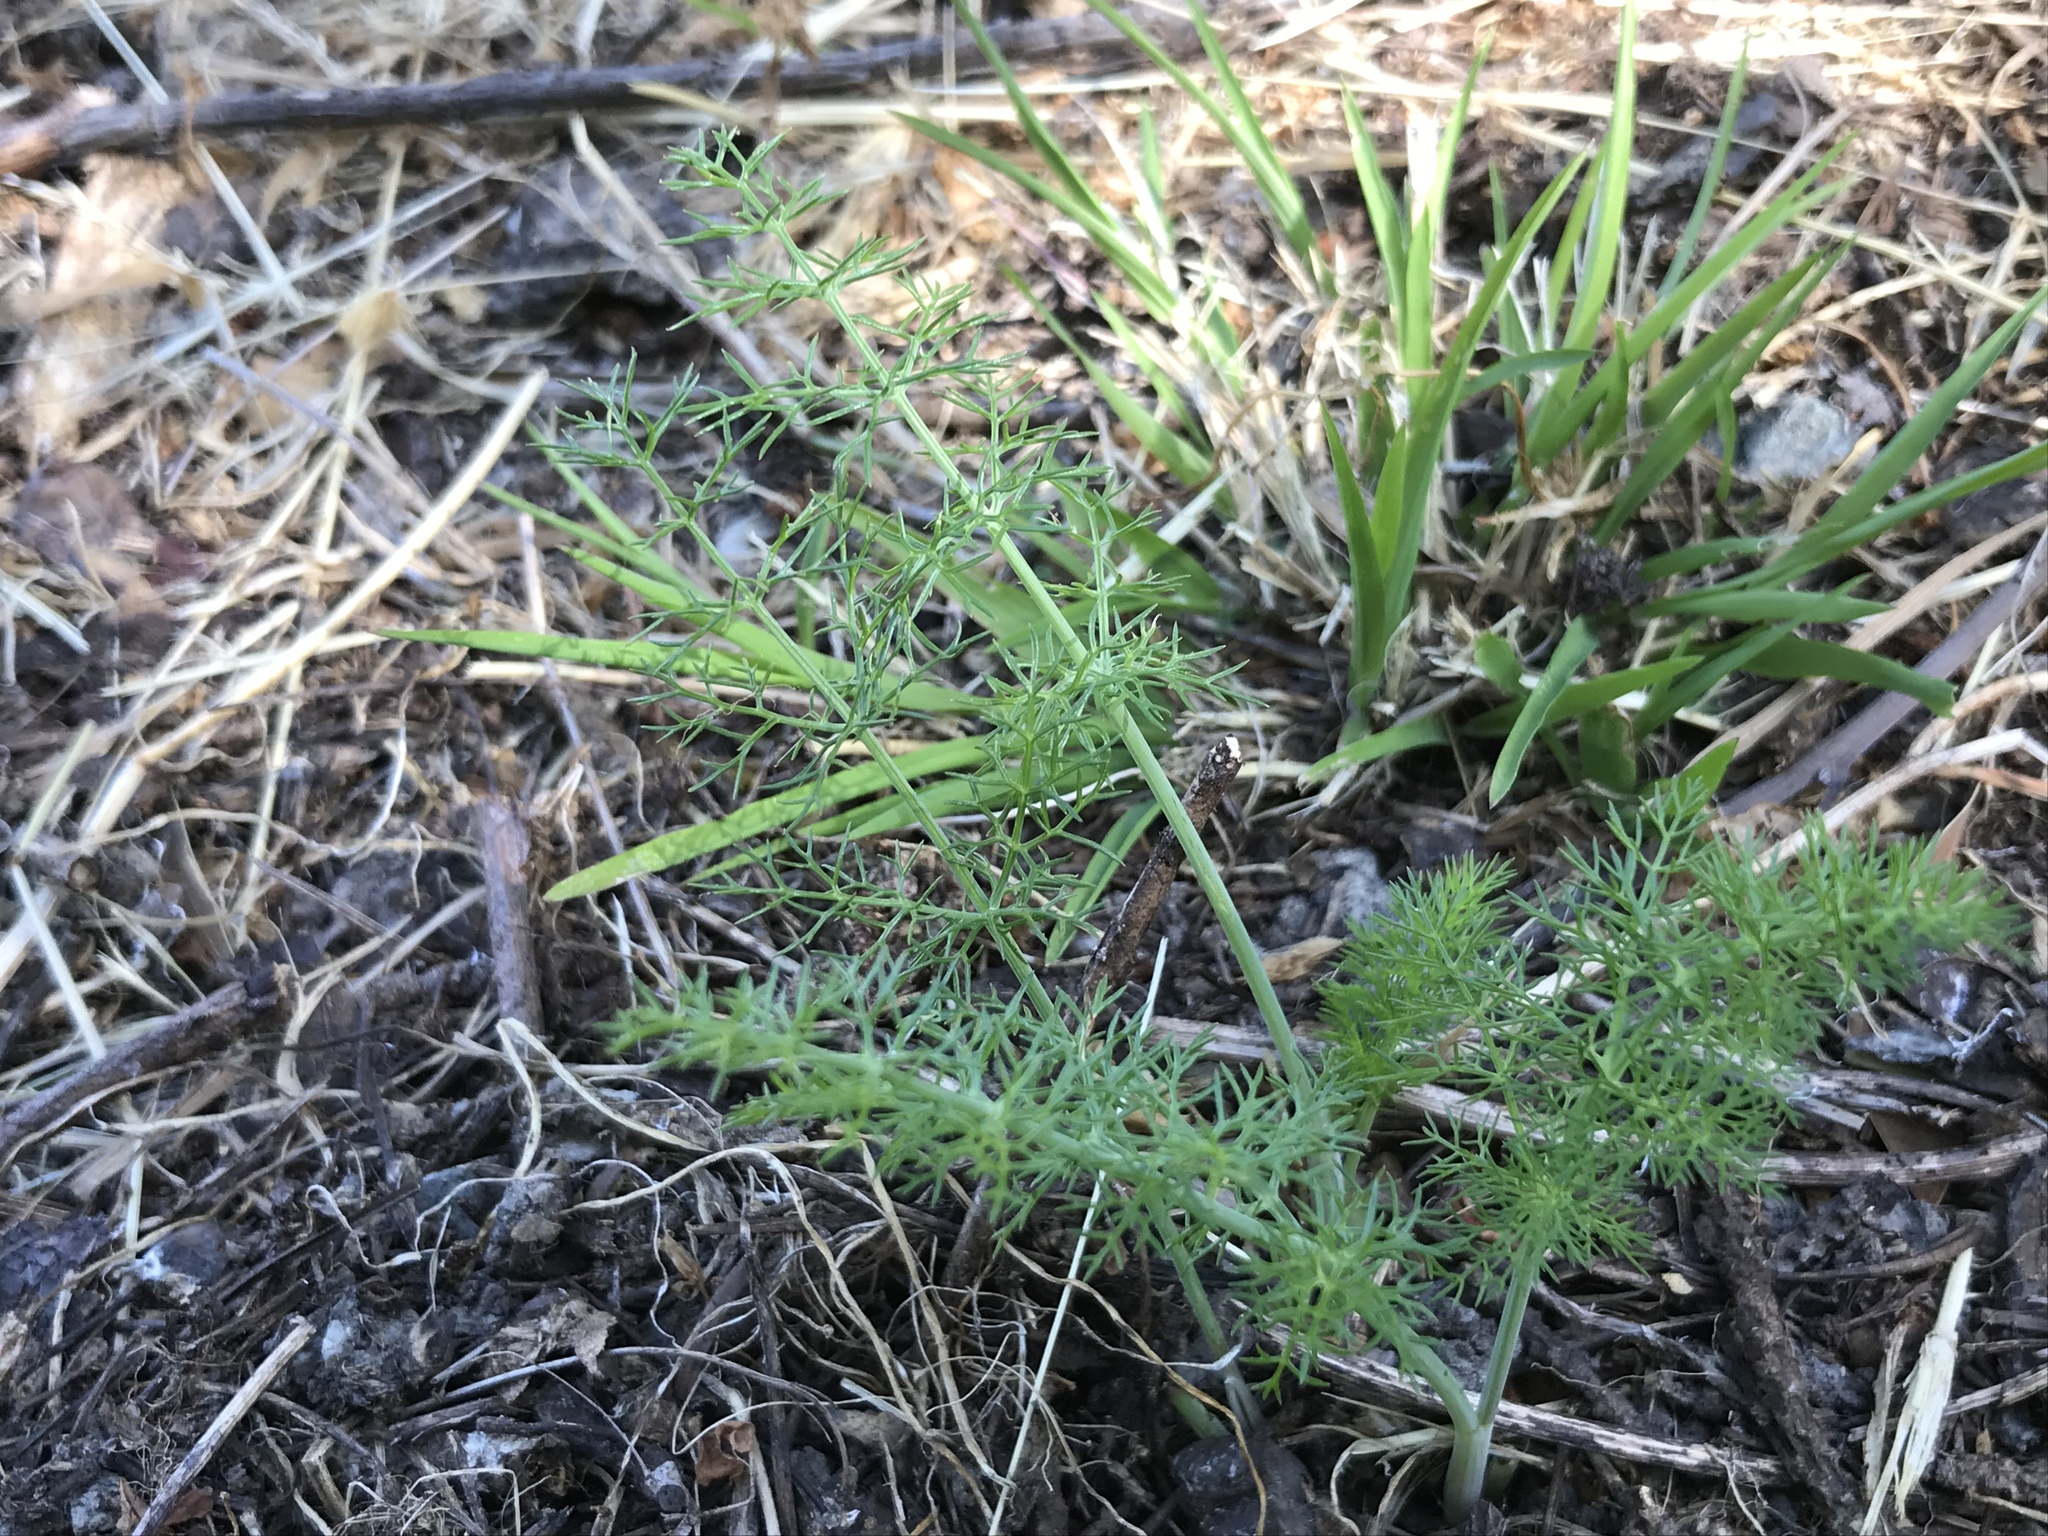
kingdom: Plantae
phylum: Tracheophyta
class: Magnoliopsida
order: Apiales
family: Apiaceae
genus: Foeniculum
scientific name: Foeniculum vulgare
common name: Fennel
